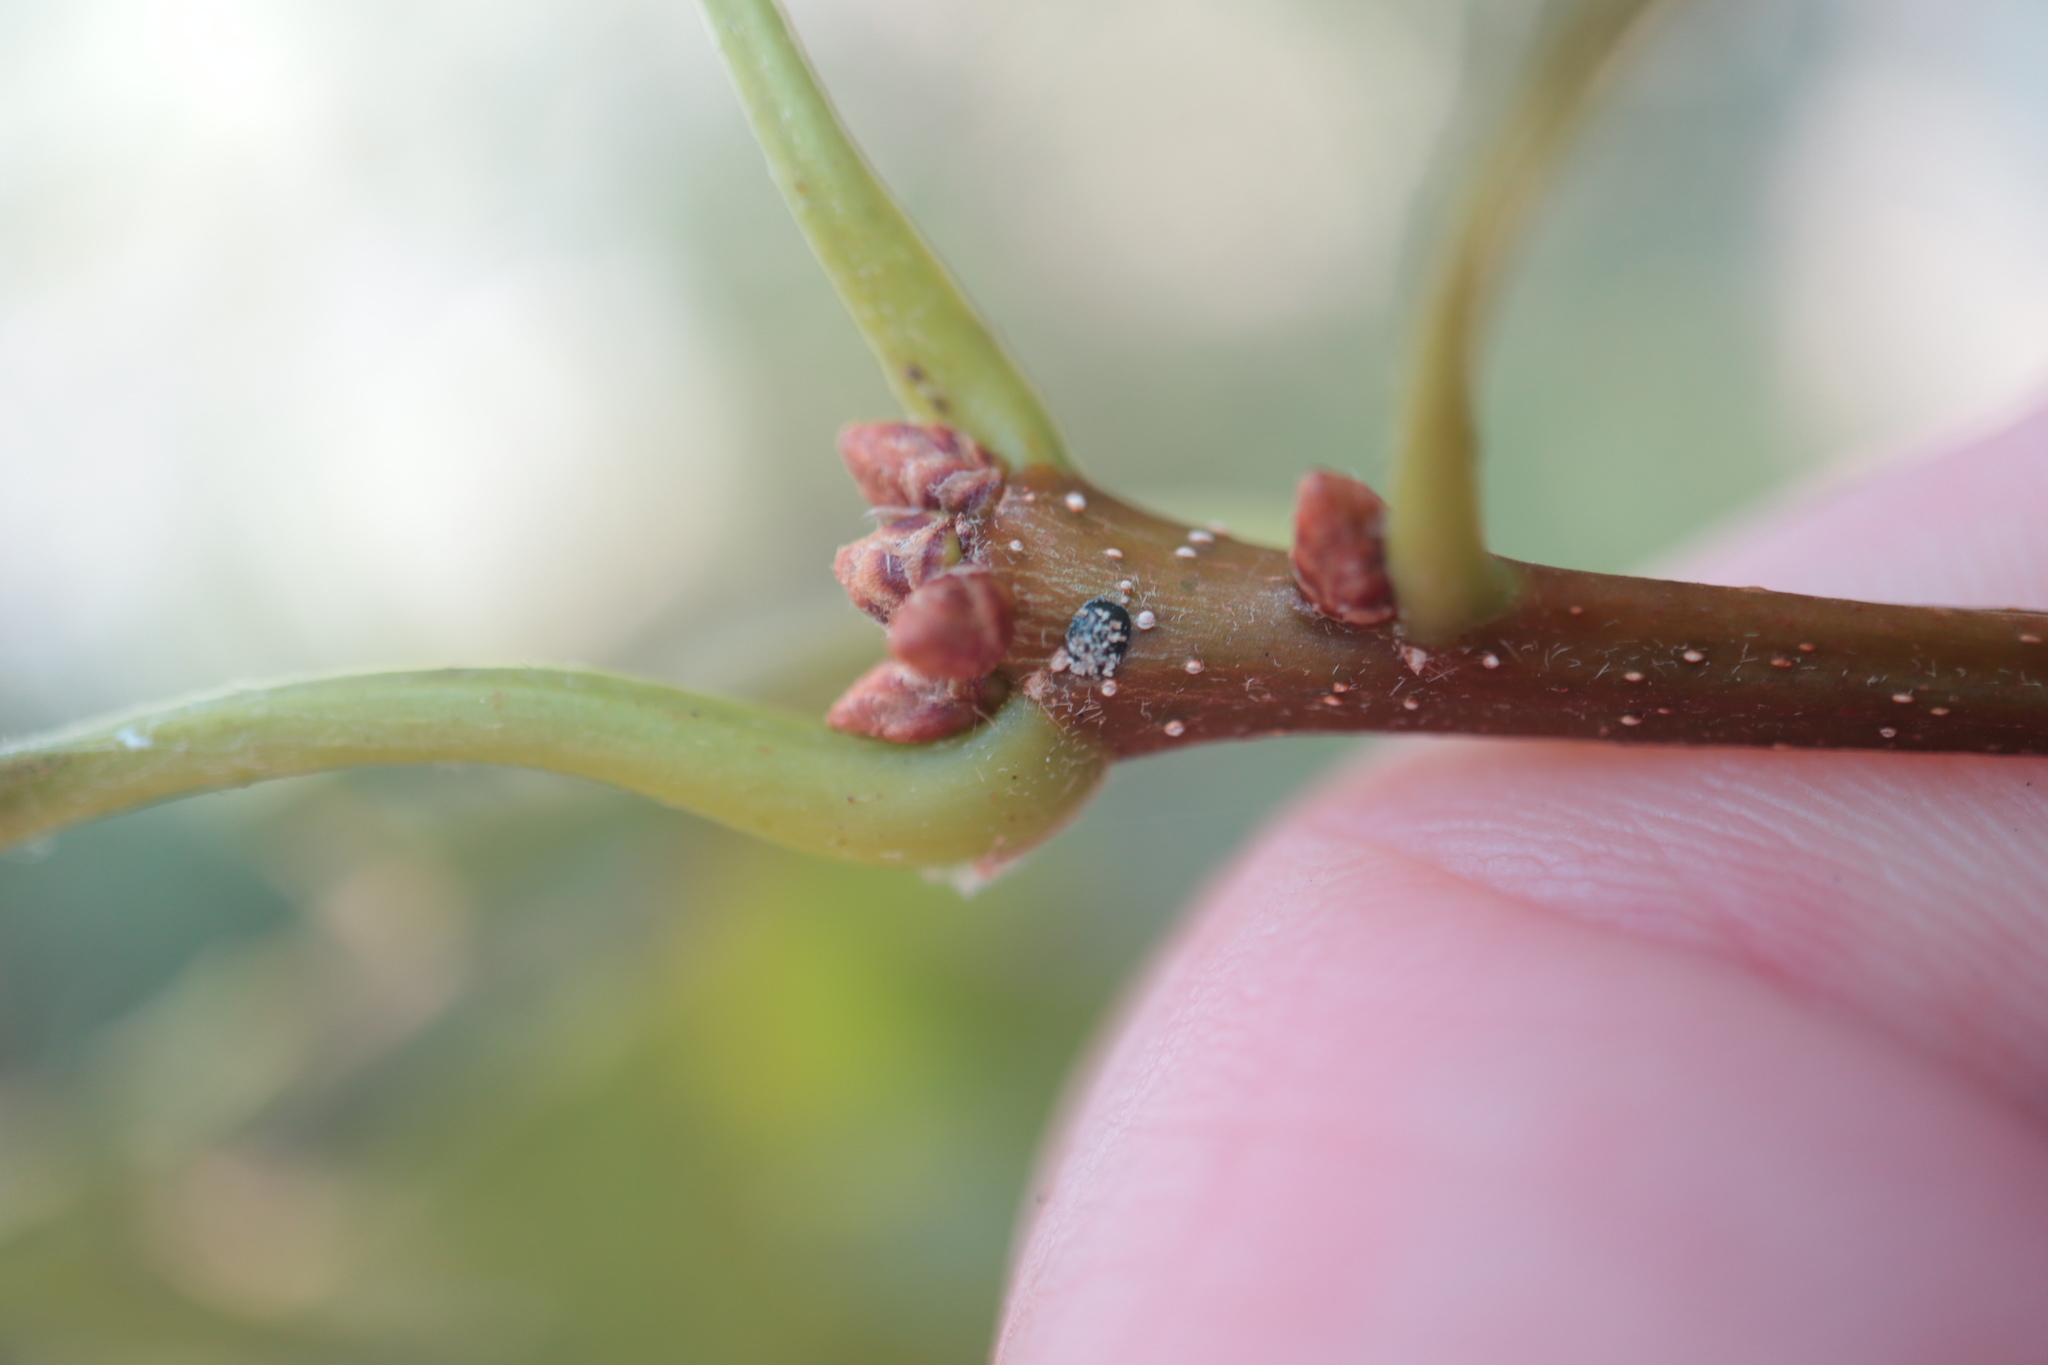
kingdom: Plantae
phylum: Tracheophyta
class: Magnoliopsida
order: Fagales
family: Fagaceae
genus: Quercus
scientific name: Quercus montana
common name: Chestnut oak
